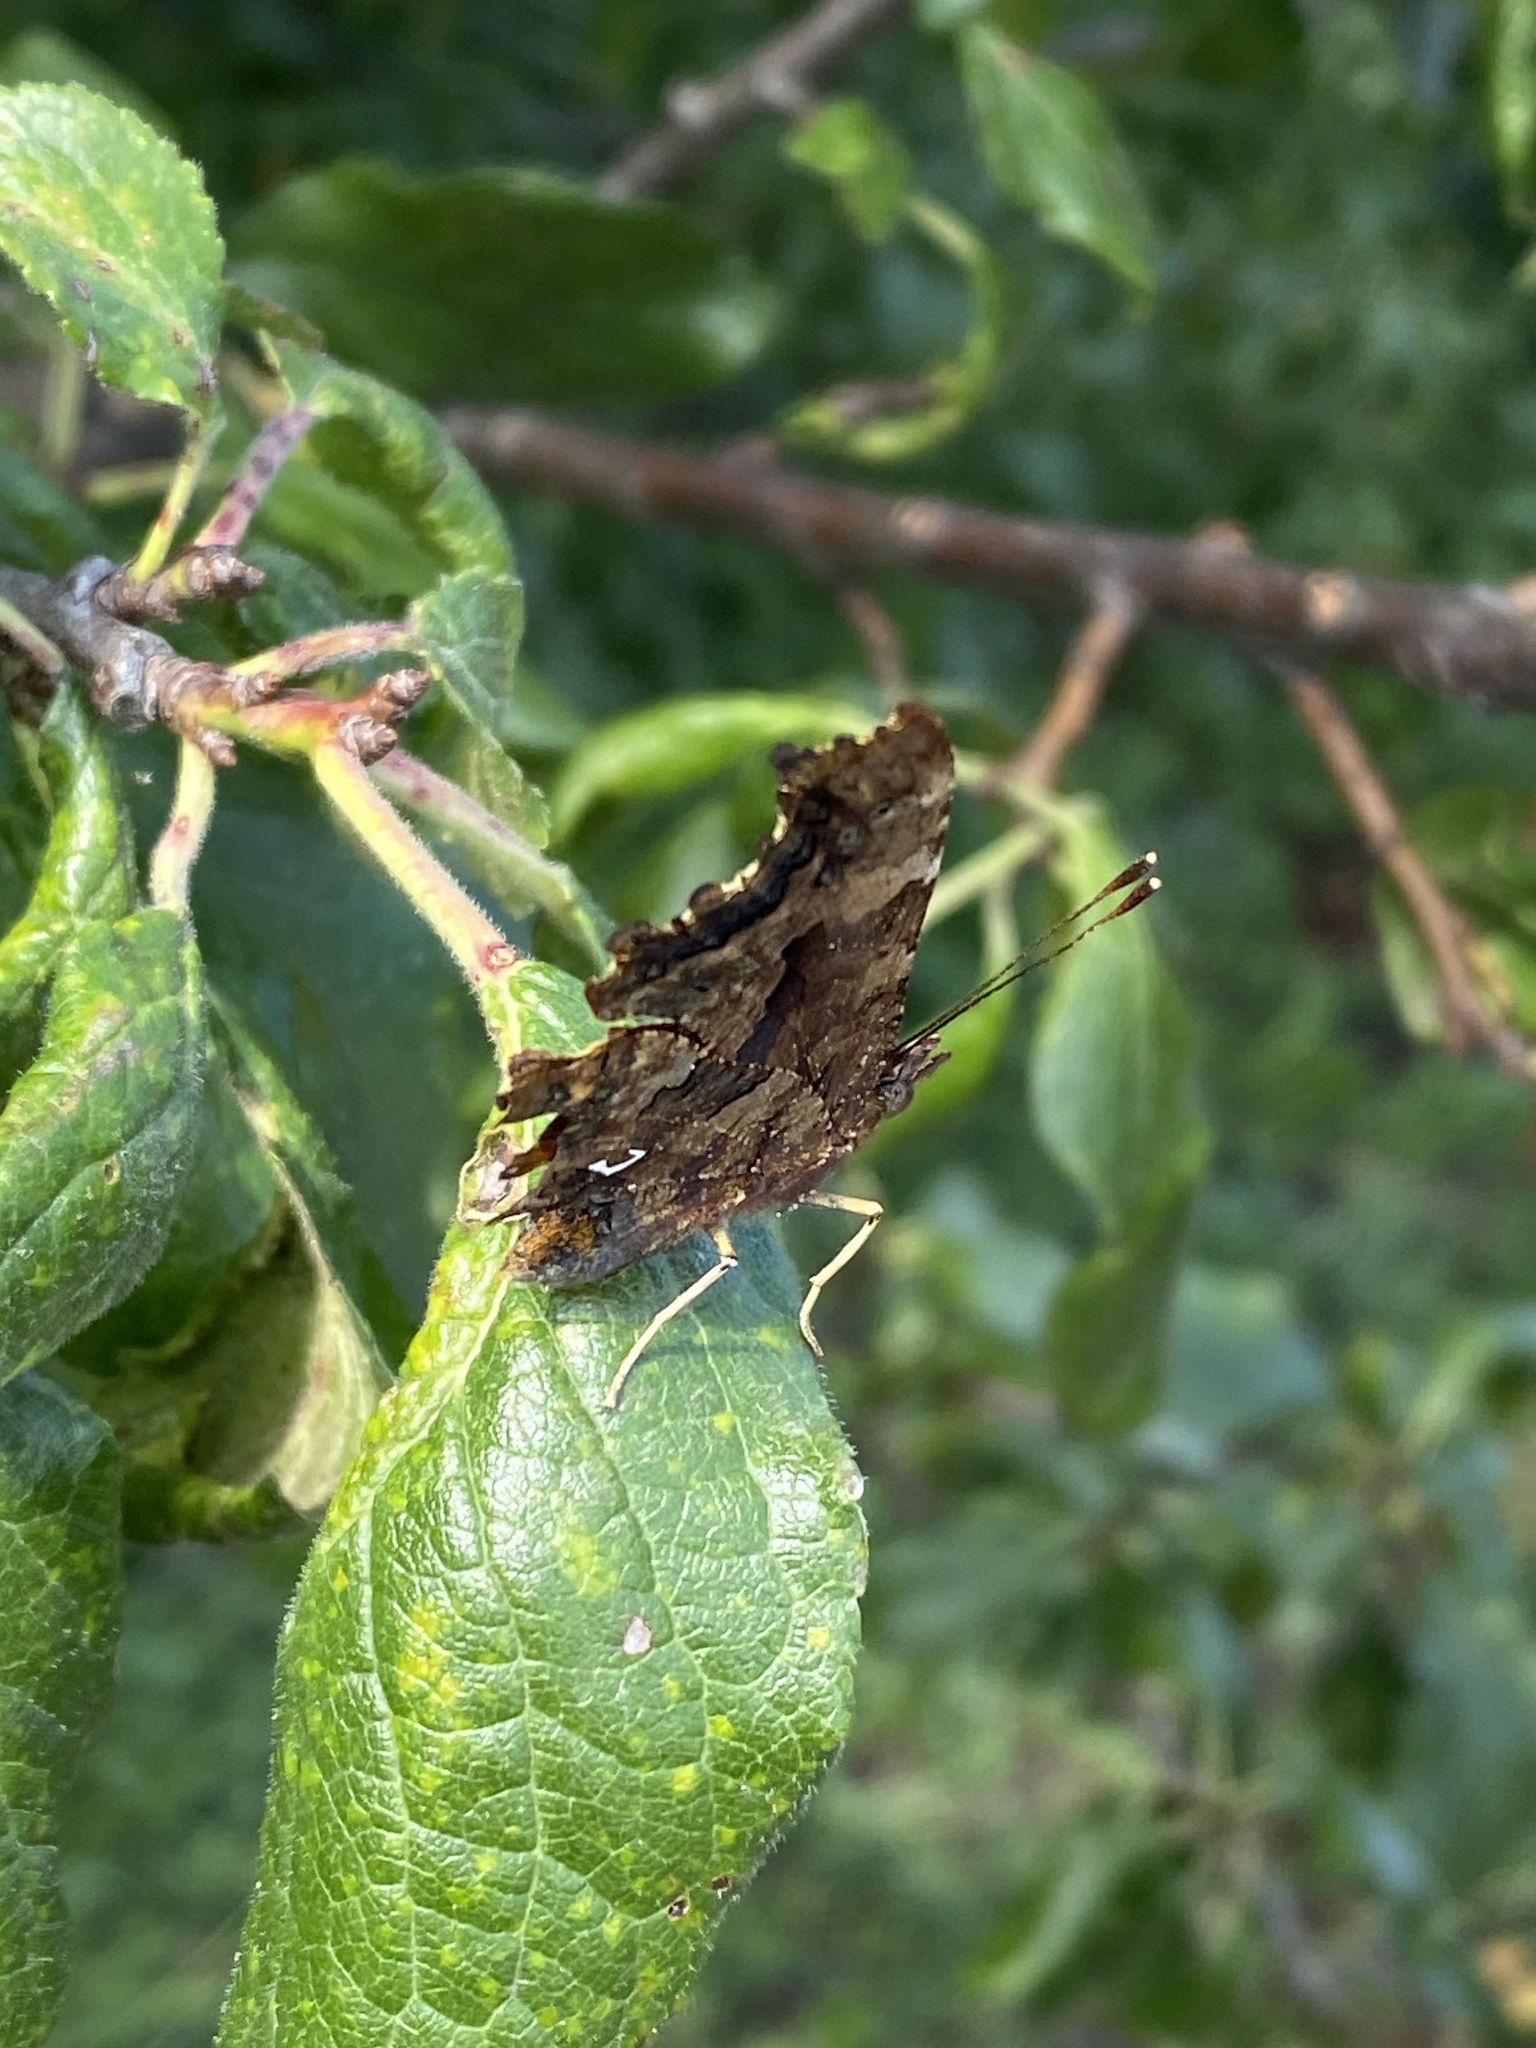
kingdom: Animalia
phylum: Arthropoda
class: Insecta
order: Lepidoptera
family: Nymphalidae
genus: Polygonia
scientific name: Polygonia c-album
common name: Comma
